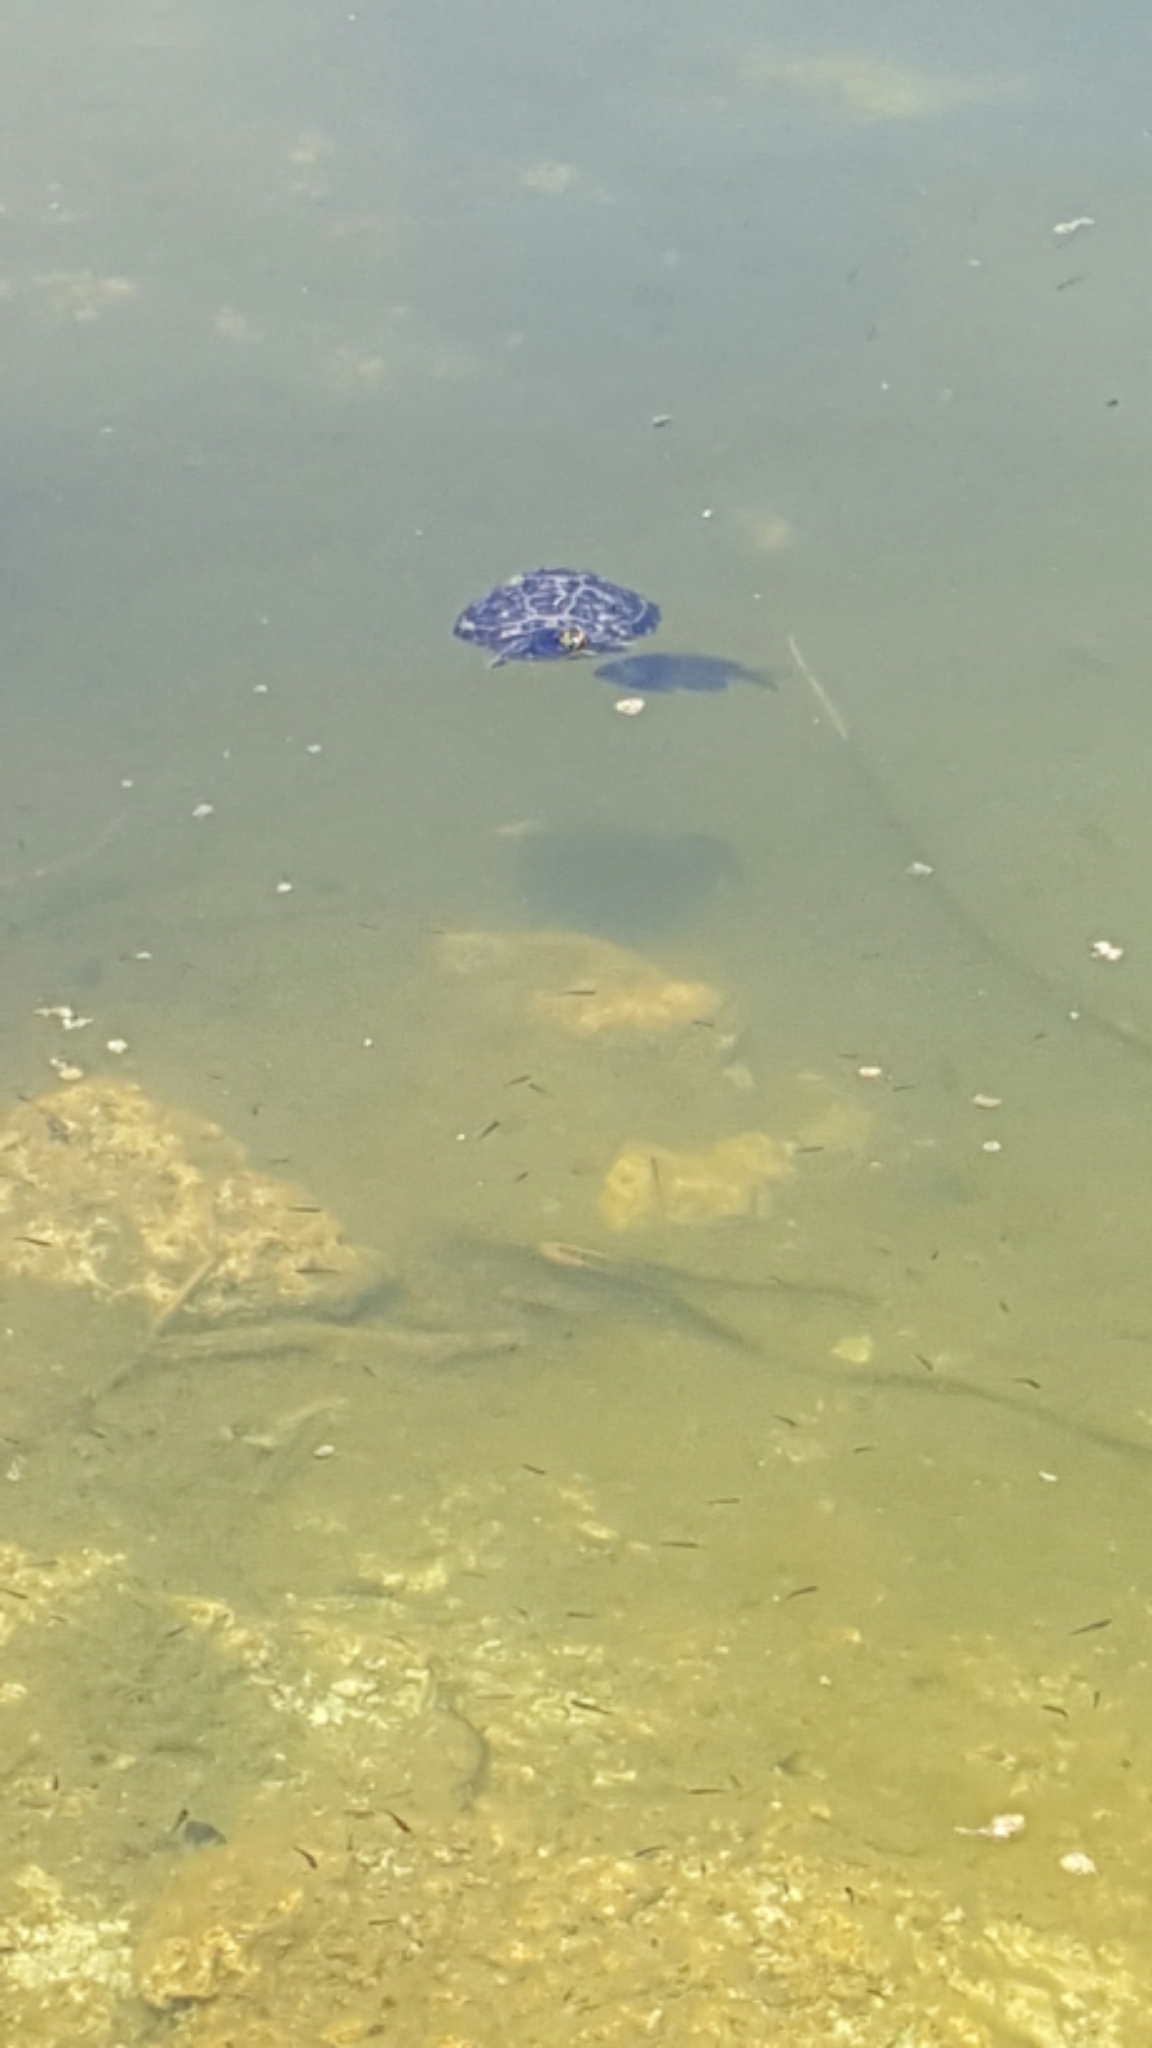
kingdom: Animalia
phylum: Chordata
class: Testudines
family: Emydidae
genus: Trachemys
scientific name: Trachemys scripta
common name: Slider
